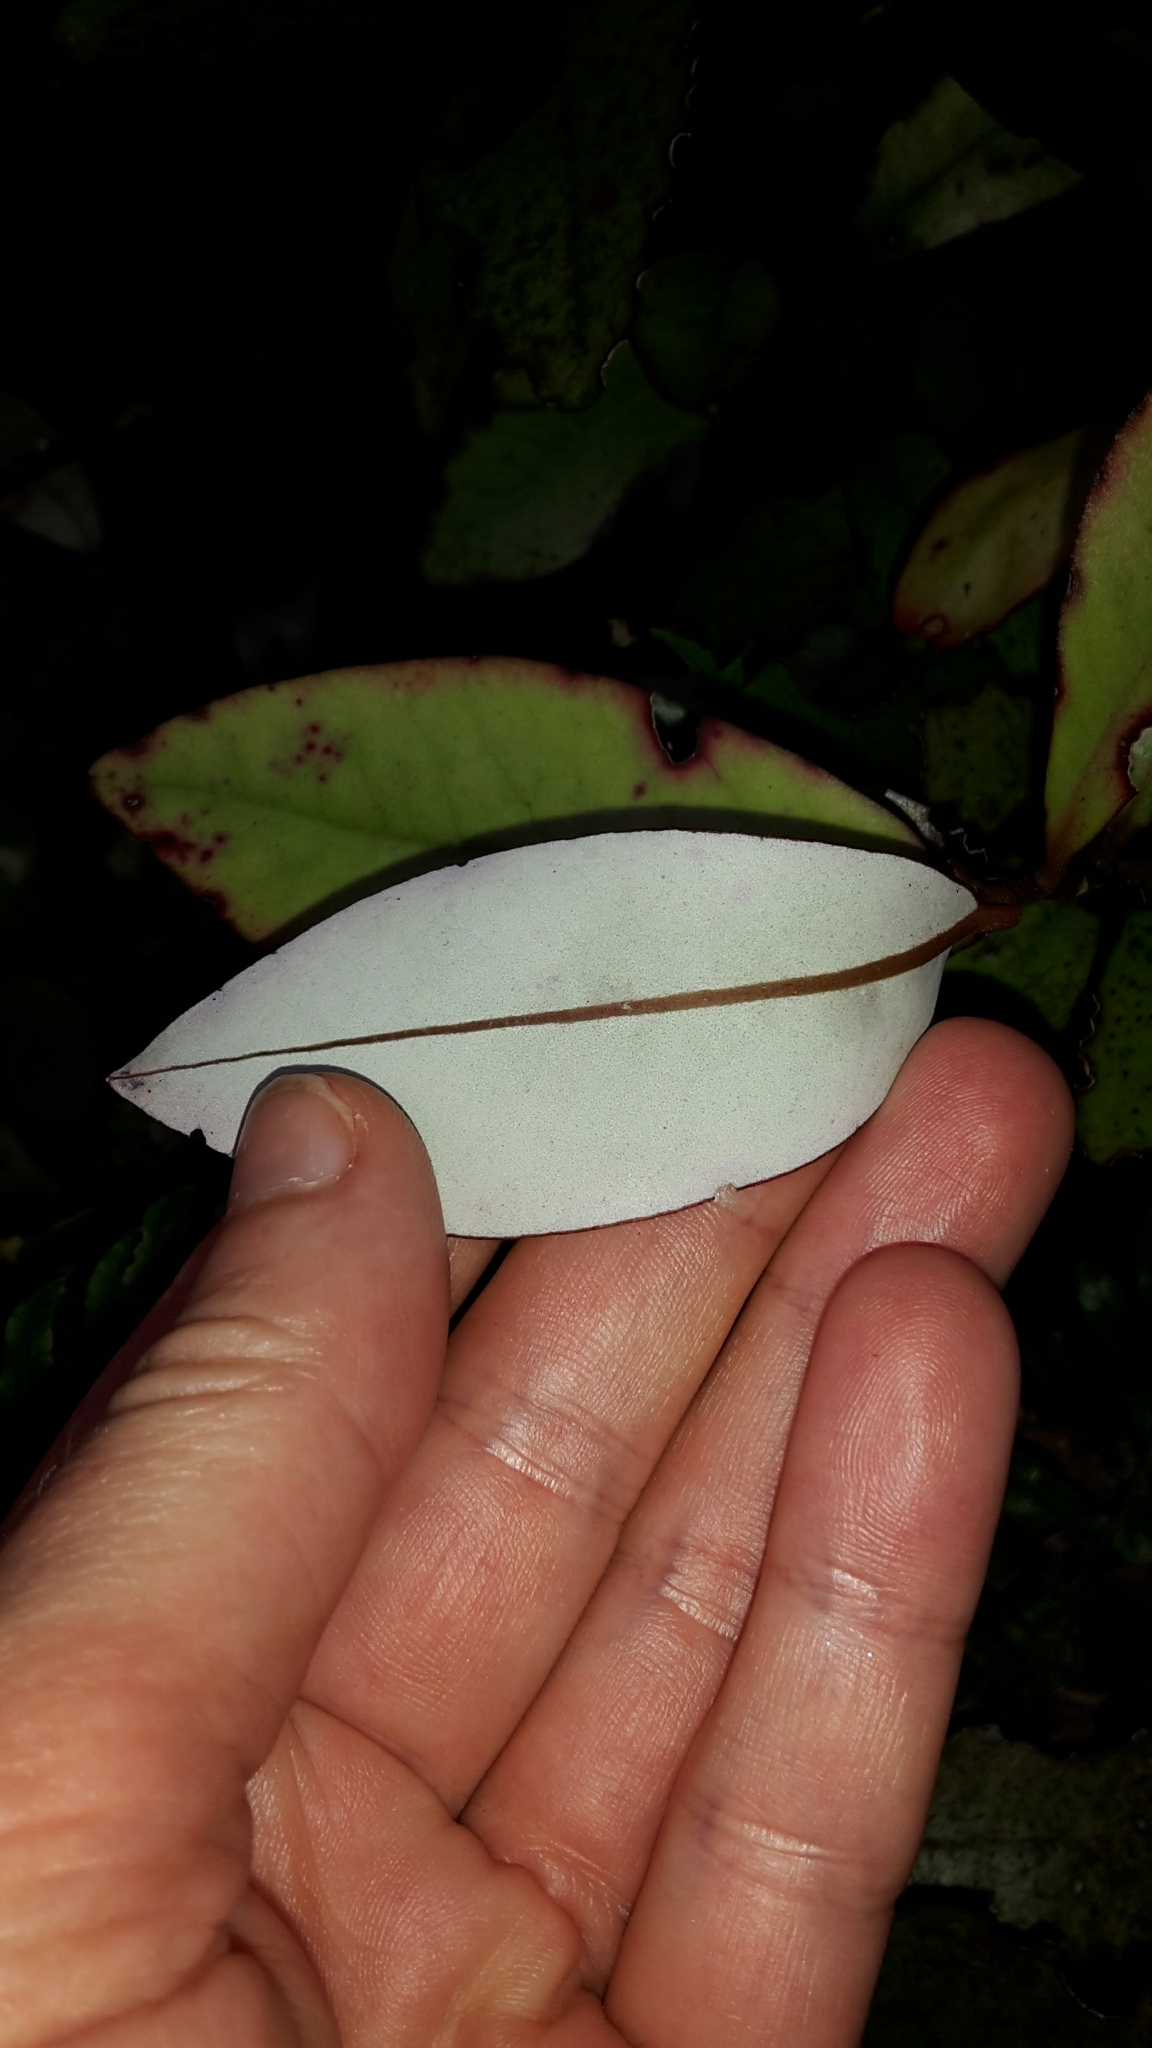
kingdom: Plantae
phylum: Tracheophyta
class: Magnoliopsida
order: Canellales
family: Winteraceae
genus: Pseudowintera
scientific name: Pseudowintera colorata
